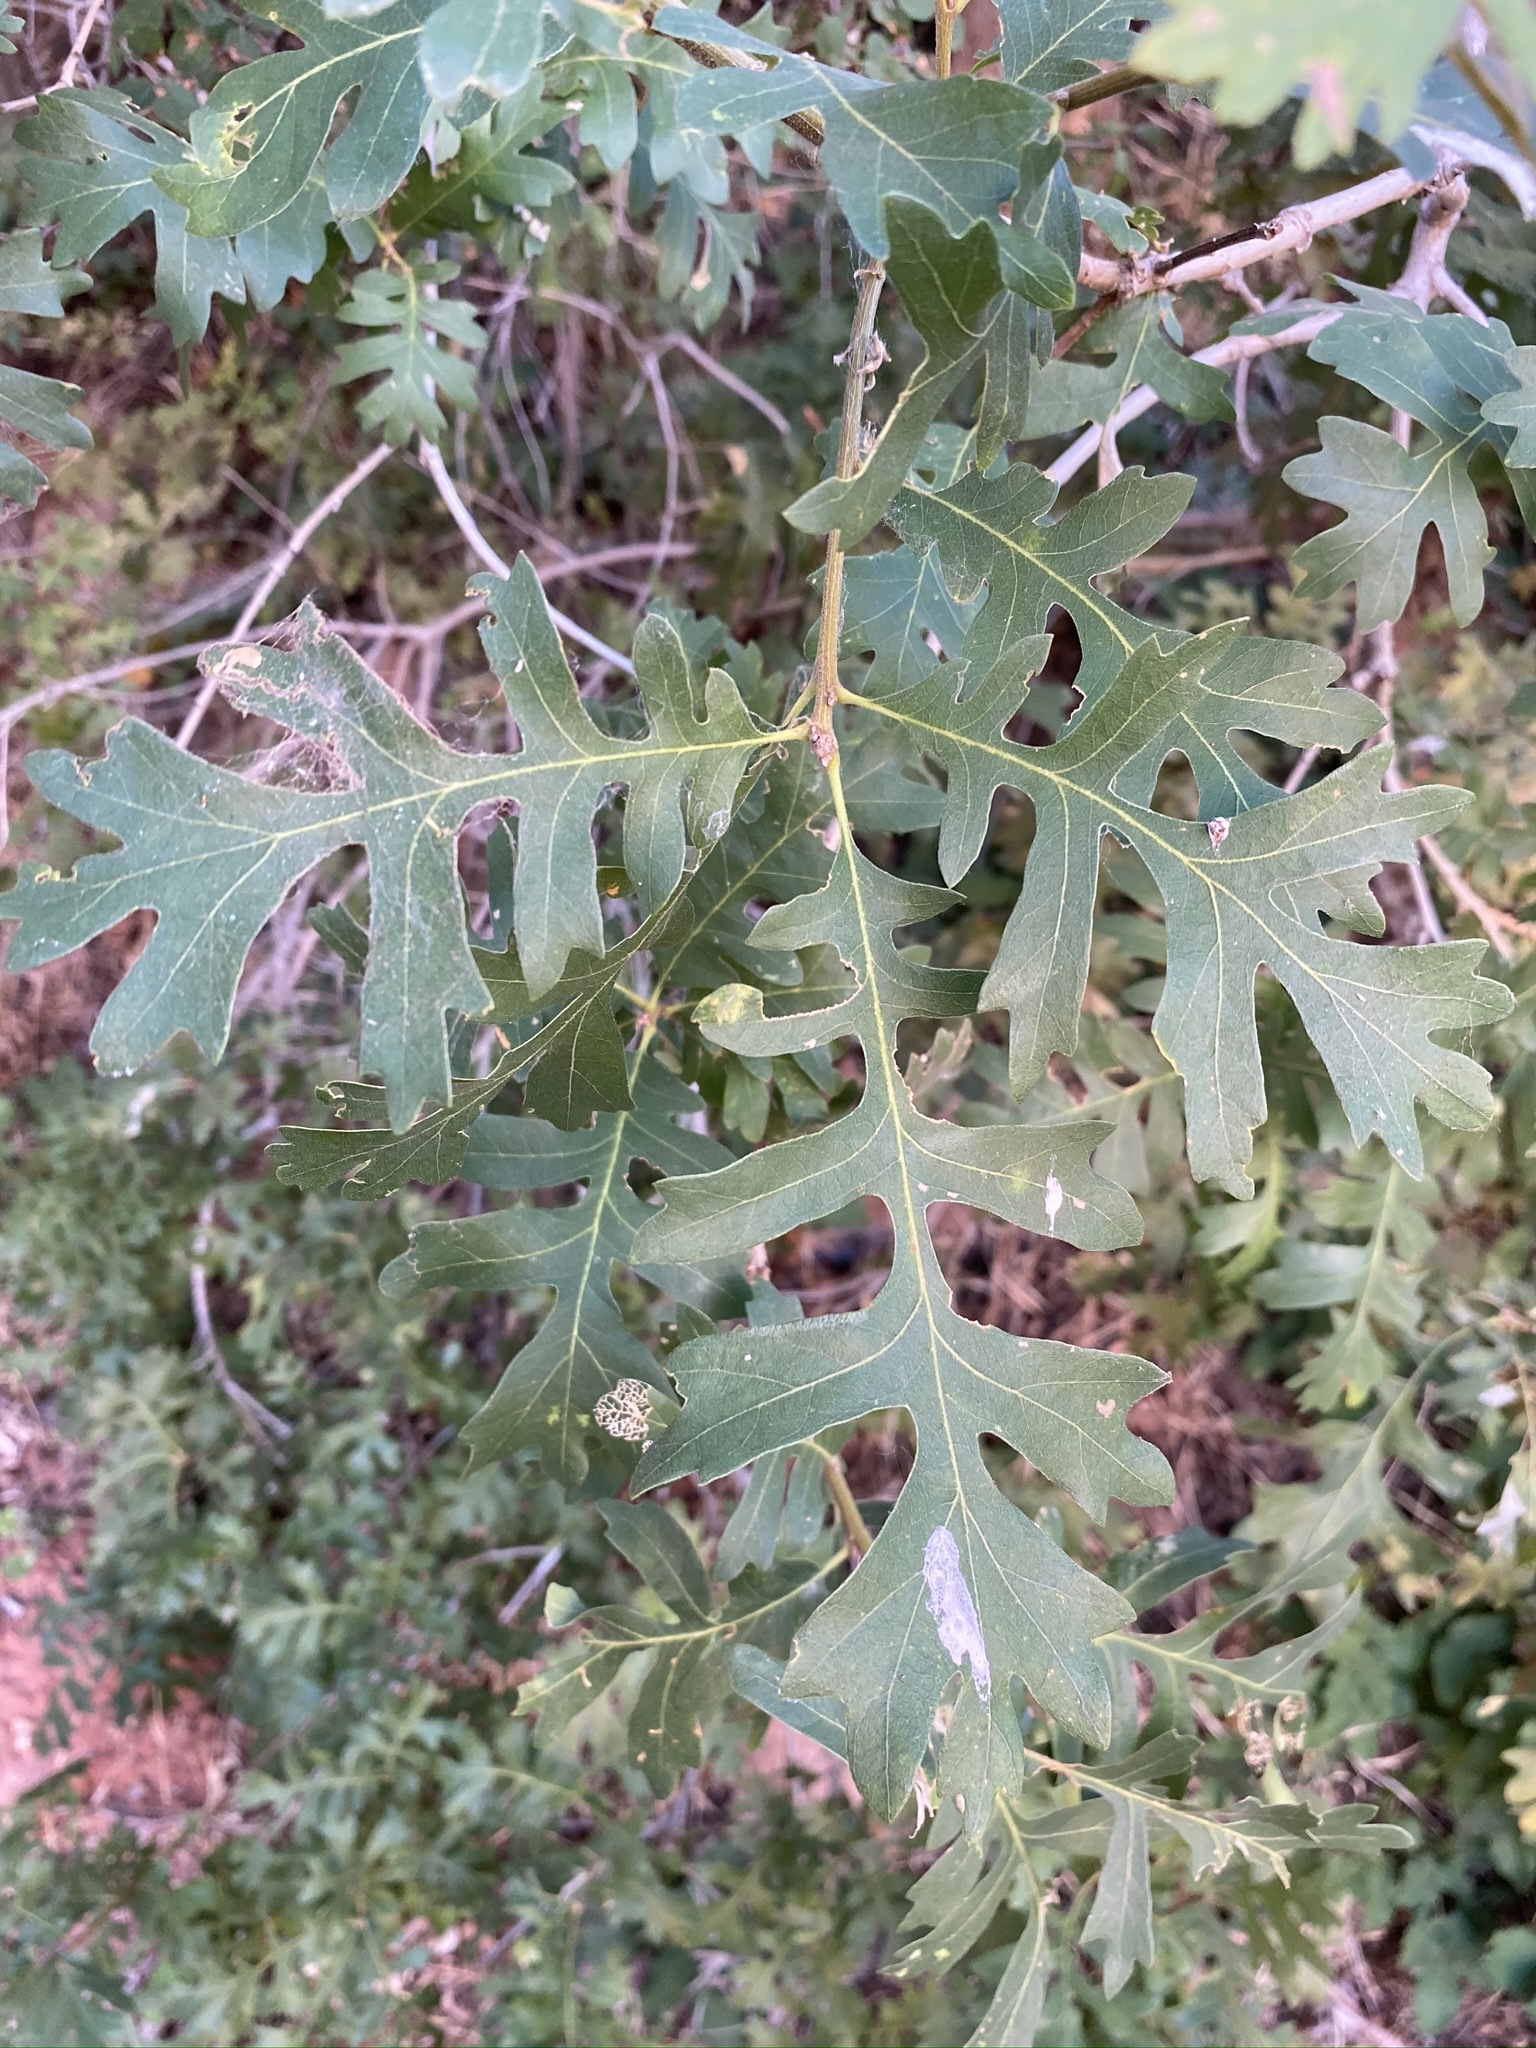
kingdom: Plantae
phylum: Tracheophyta
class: Magnoliopsida
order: Fagales
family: Fagaceae
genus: Quercus
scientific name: Quercus gambelii
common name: Gambel oak
